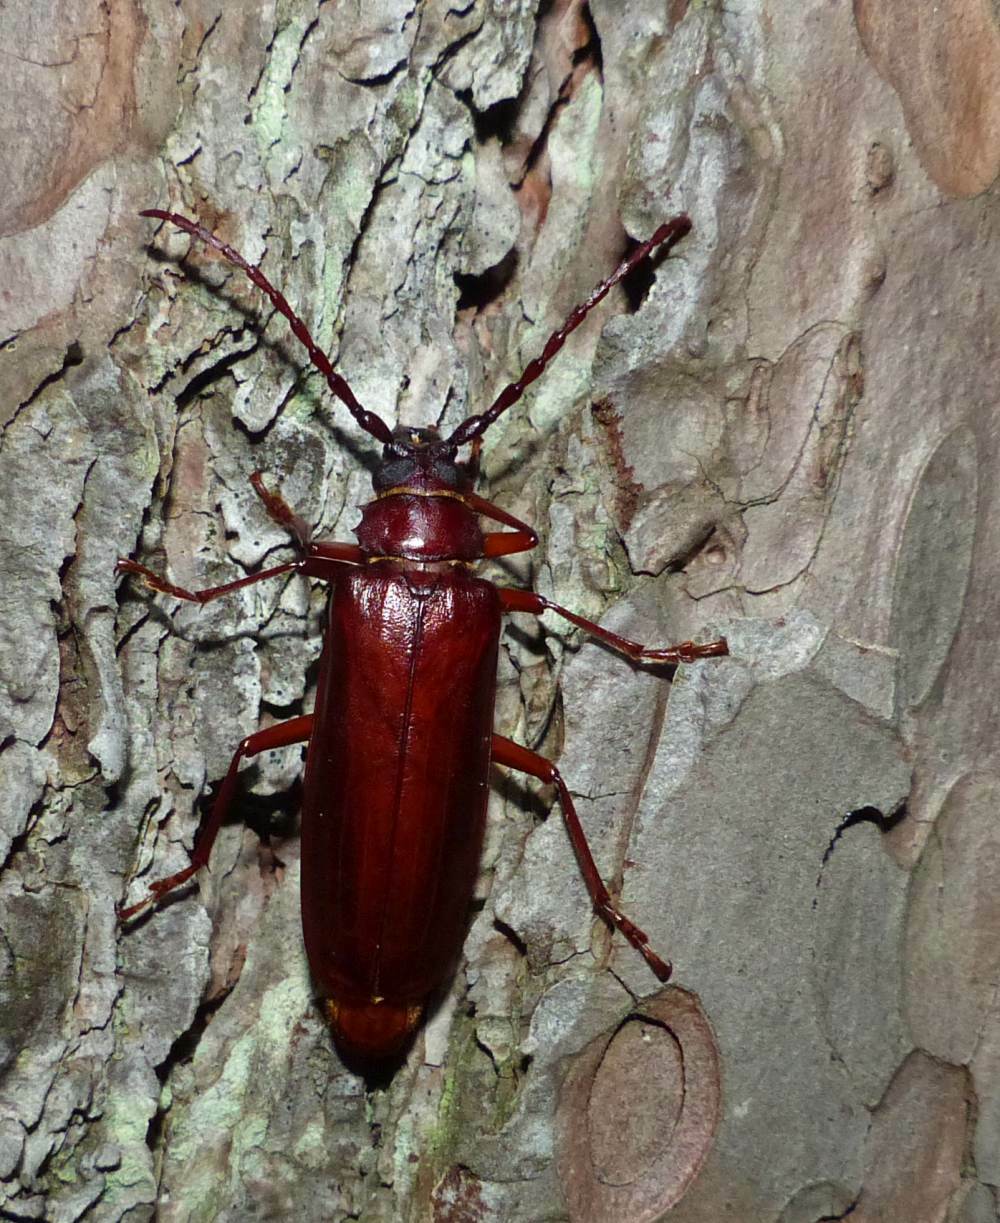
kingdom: Animalia
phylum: Arthropoda
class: Insecta
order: Coleoptera
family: Cerambycidae
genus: Orthosoma
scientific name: Orthosoma brunneum
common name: Brown prionid beetle
